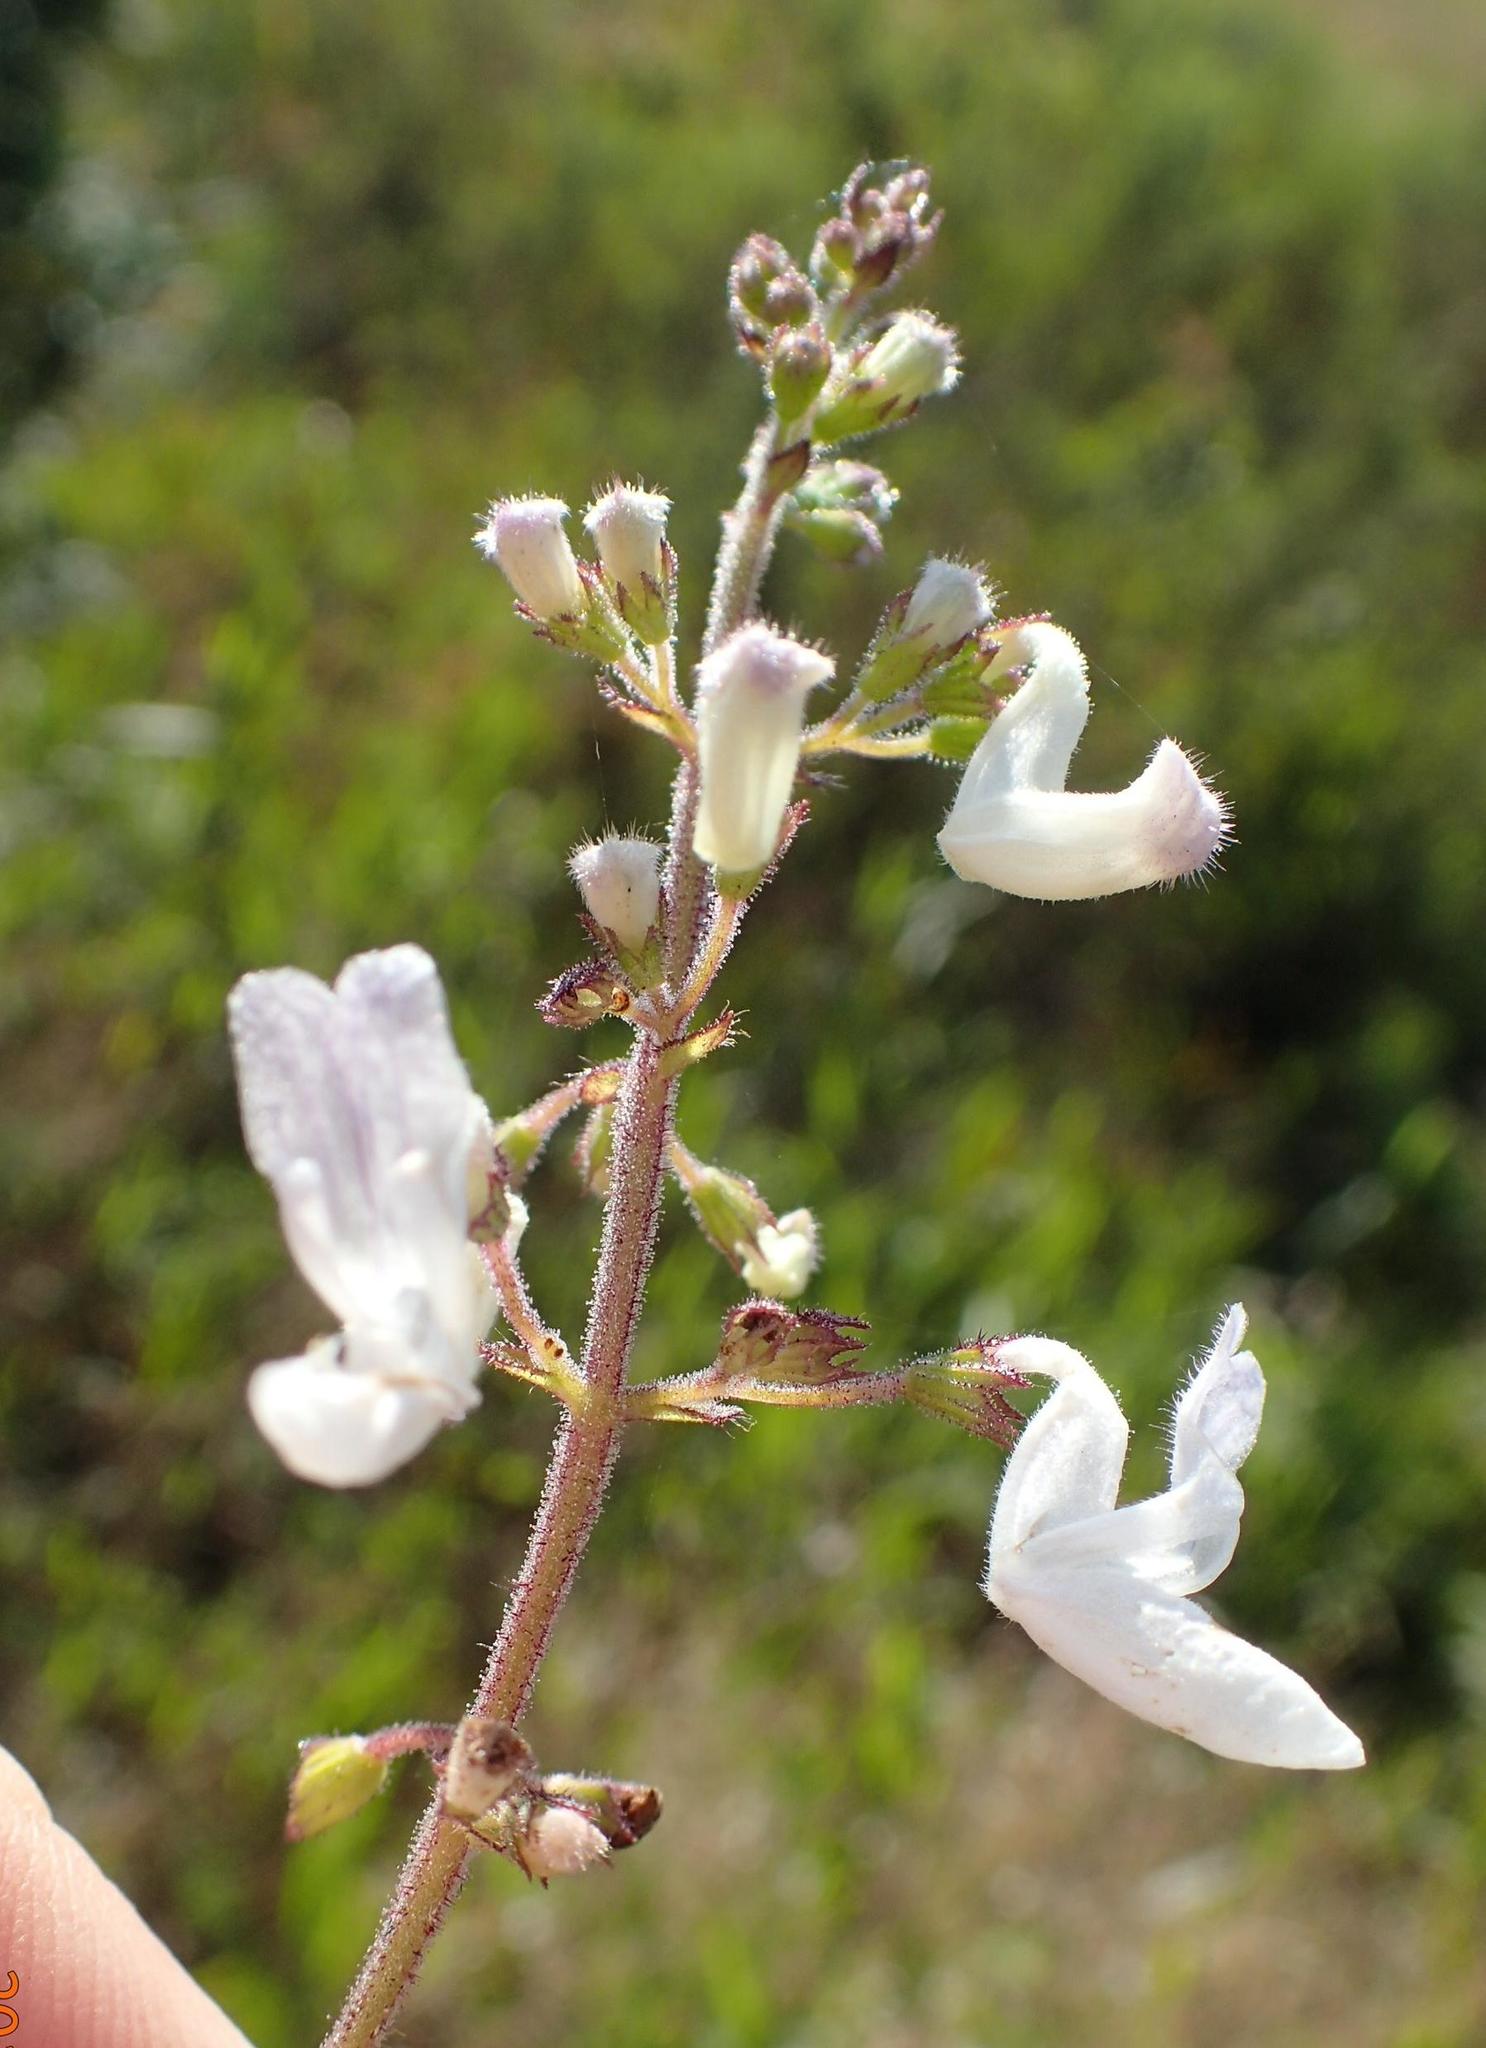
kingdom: Plantae
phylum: Tracheophyta
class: Magnoliopsida
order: Lamiales
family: Lamiaceae
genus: Equilabium
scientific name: Equilabium laxiflorum
